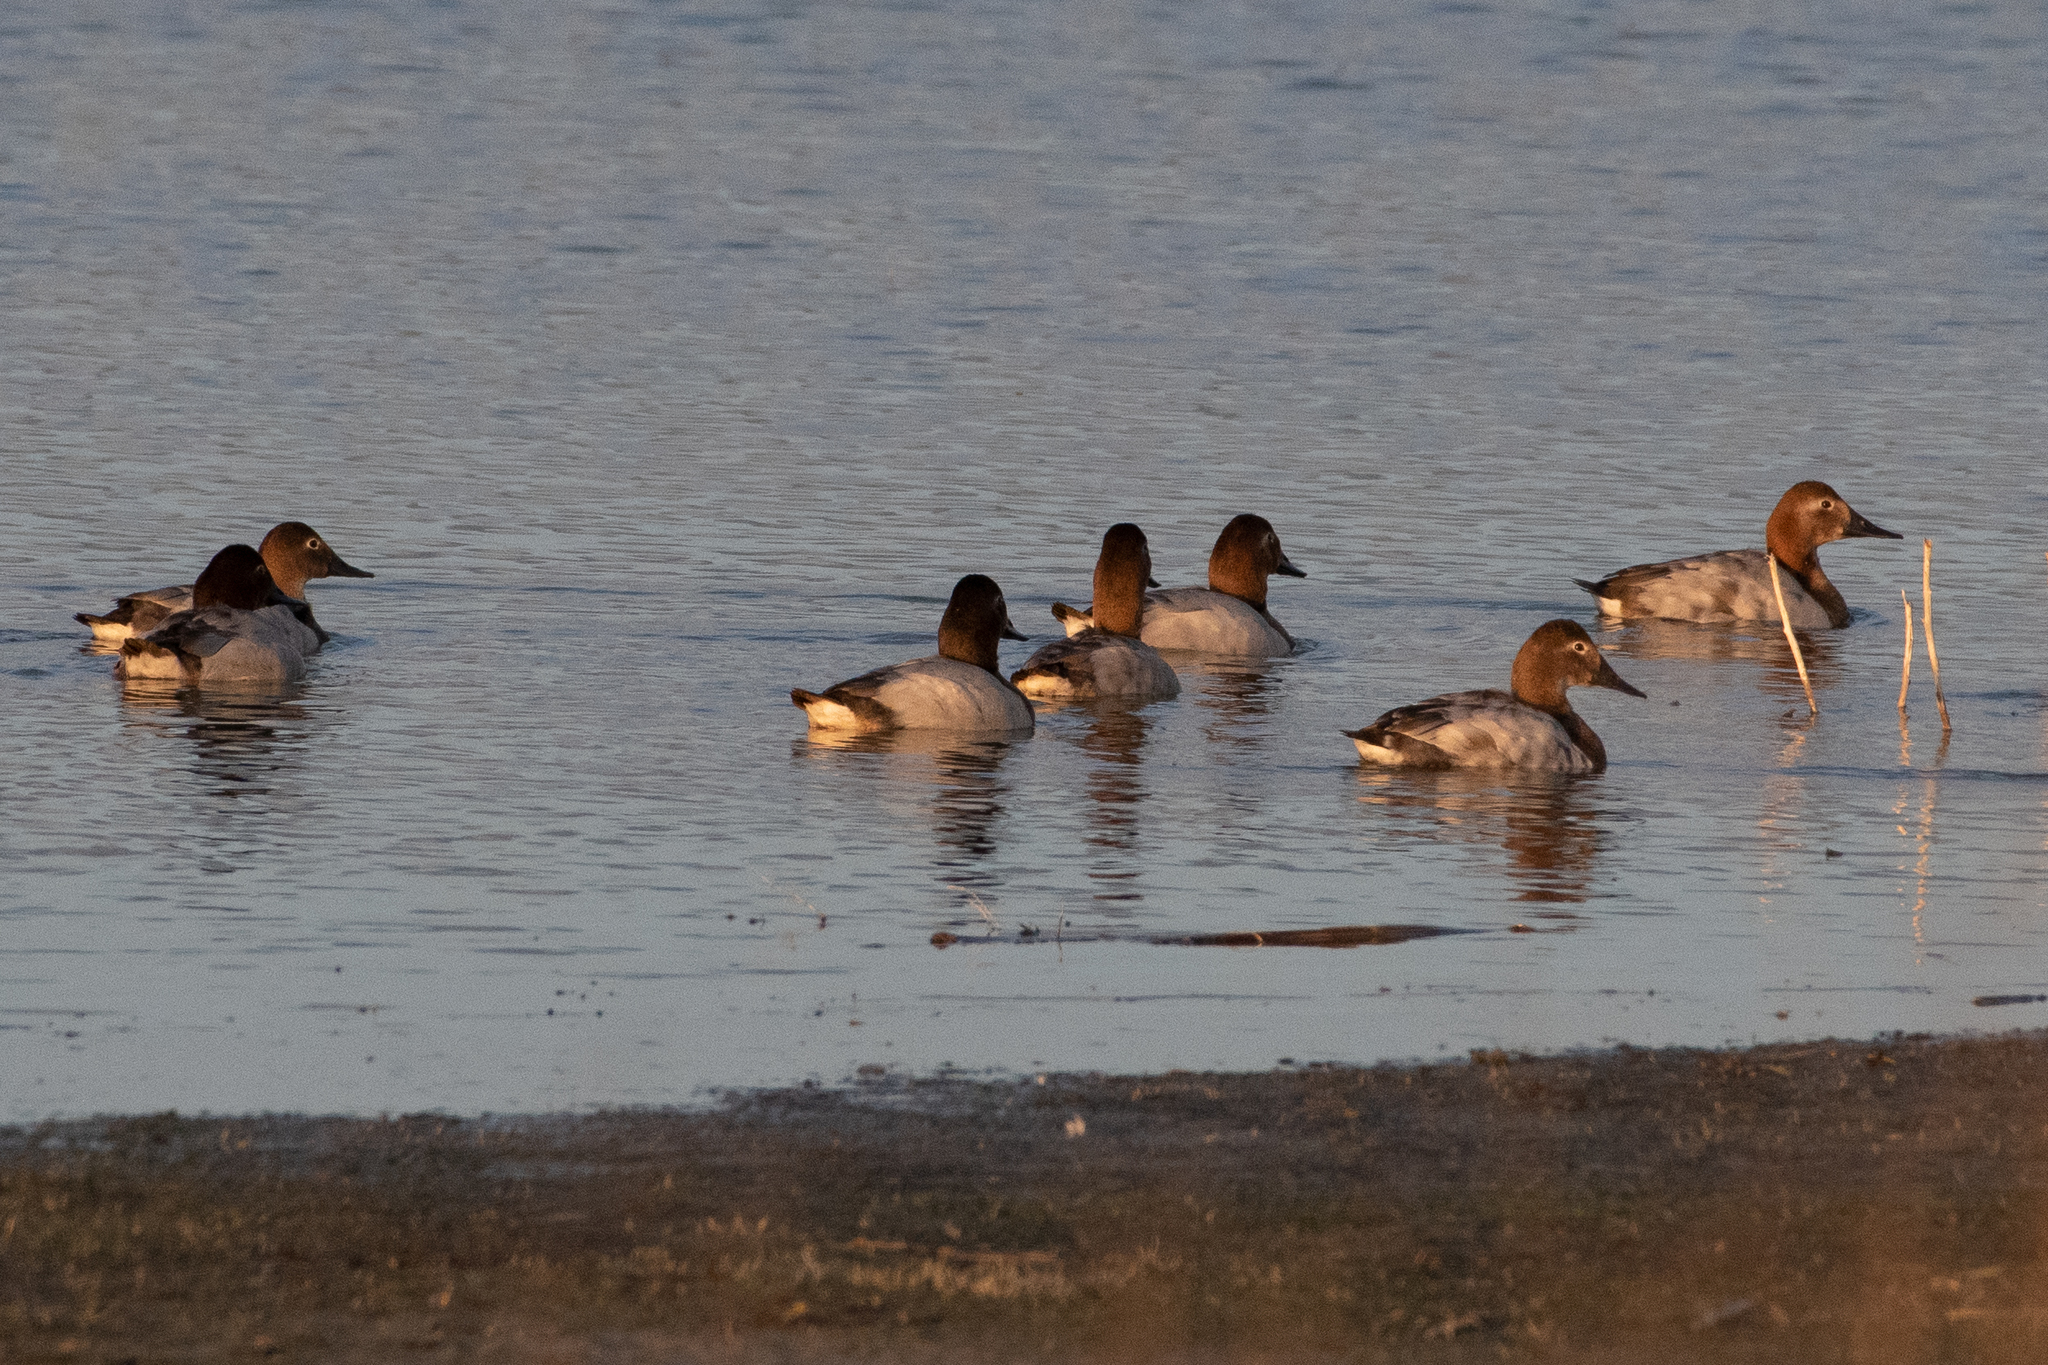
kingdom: Animalia
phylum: Chordata
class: Aves
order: Anseriformes
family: Anatidae
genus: Aythya
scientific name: Aythya valisineria
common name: Canvasback
